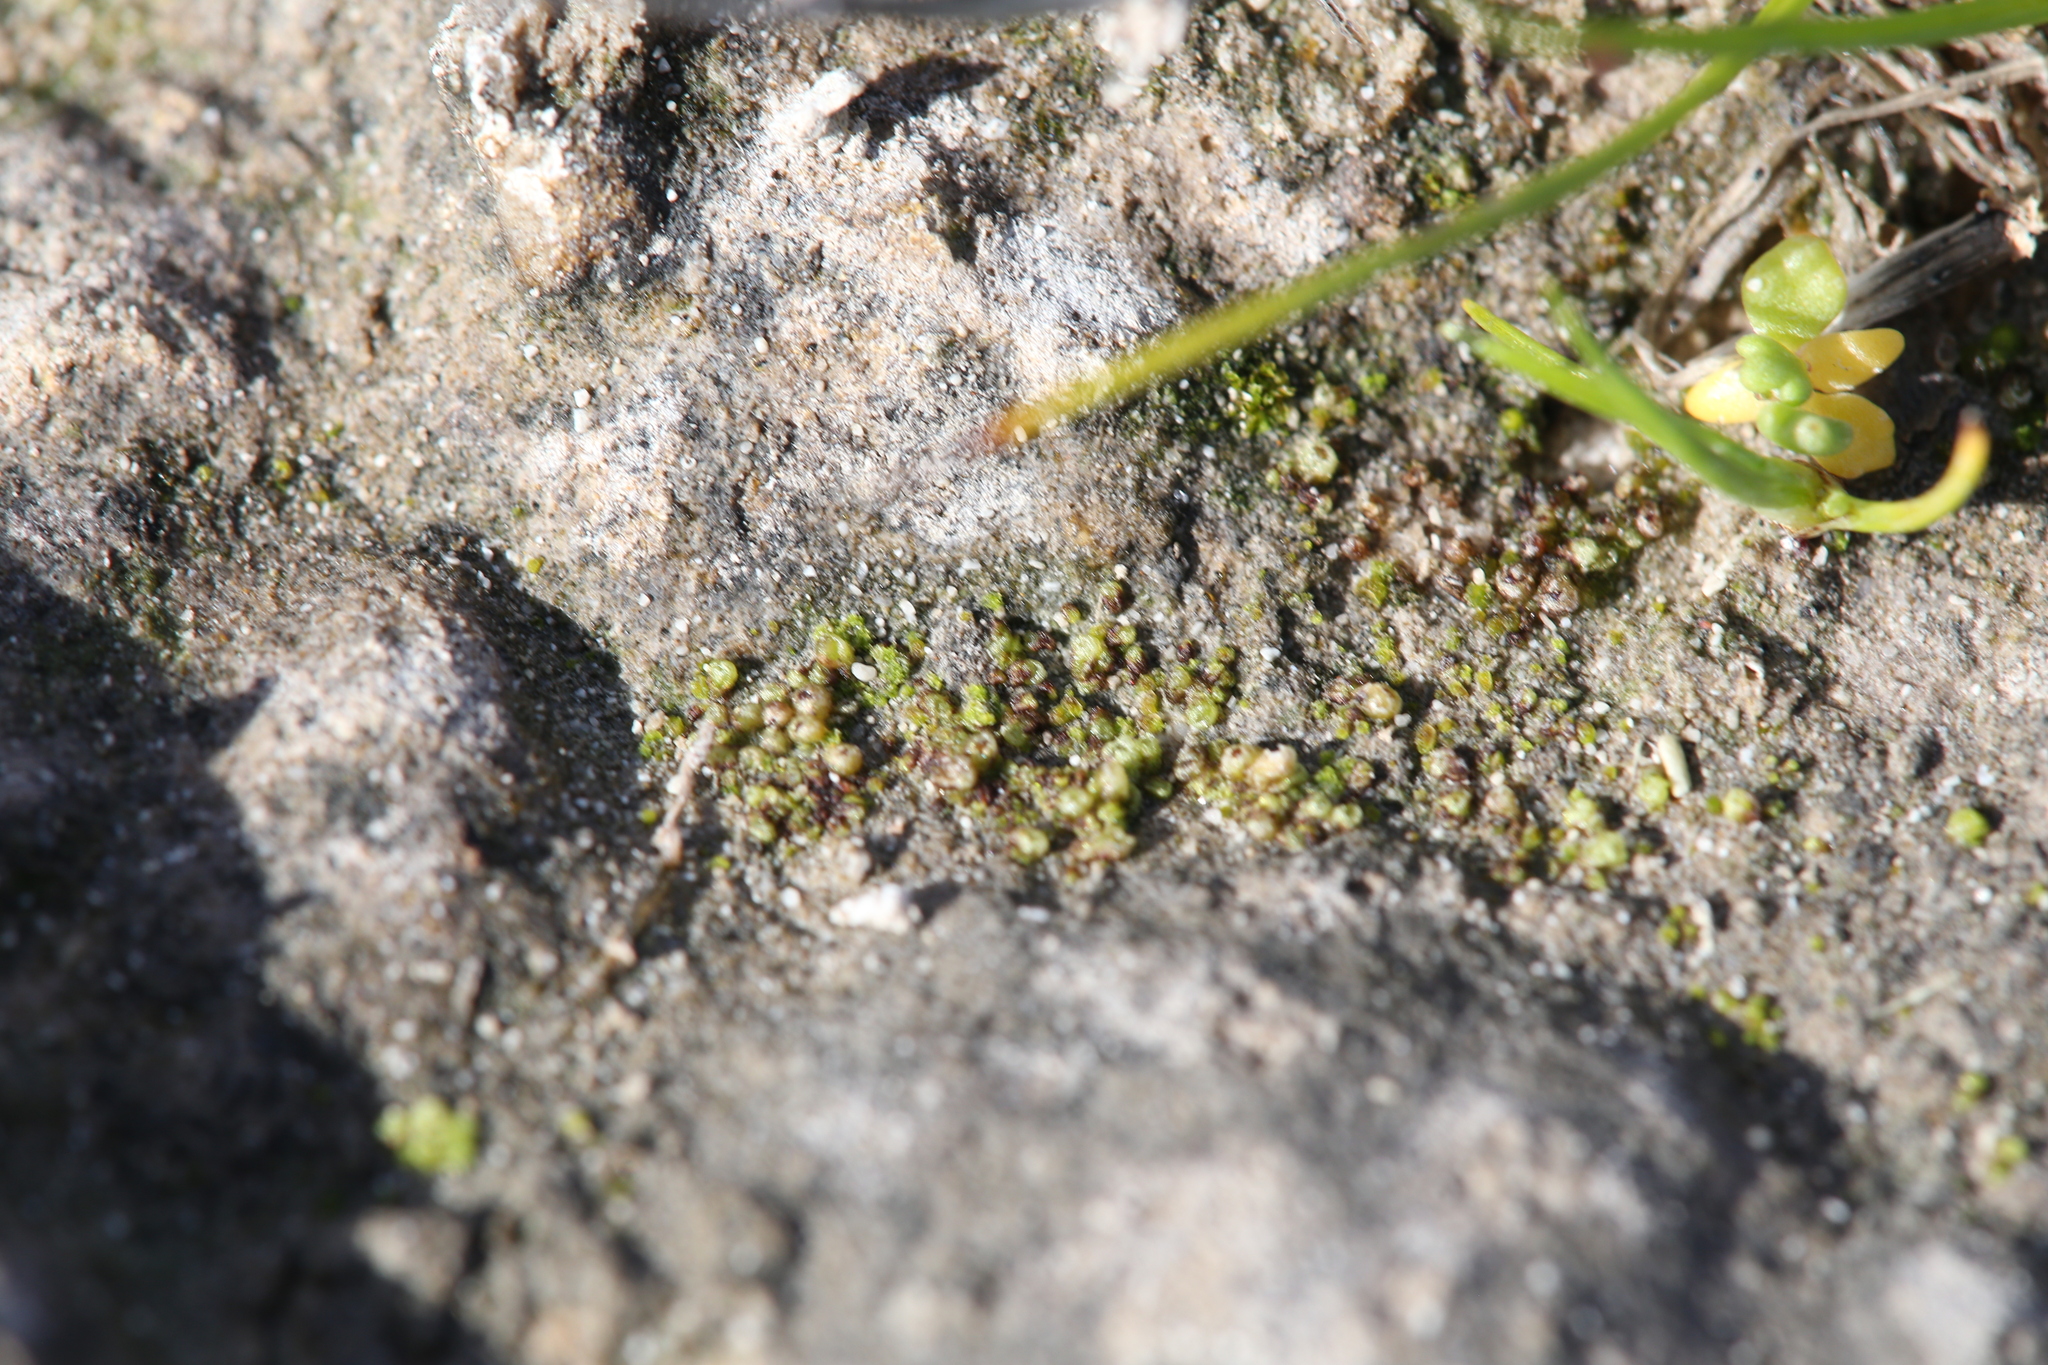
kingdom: Plantae
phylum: Marchantiophyta
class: Marchantiopsida
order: Sphaerocarpales
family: Riellaceae
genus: Austroriella
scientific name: Austroriella salta
